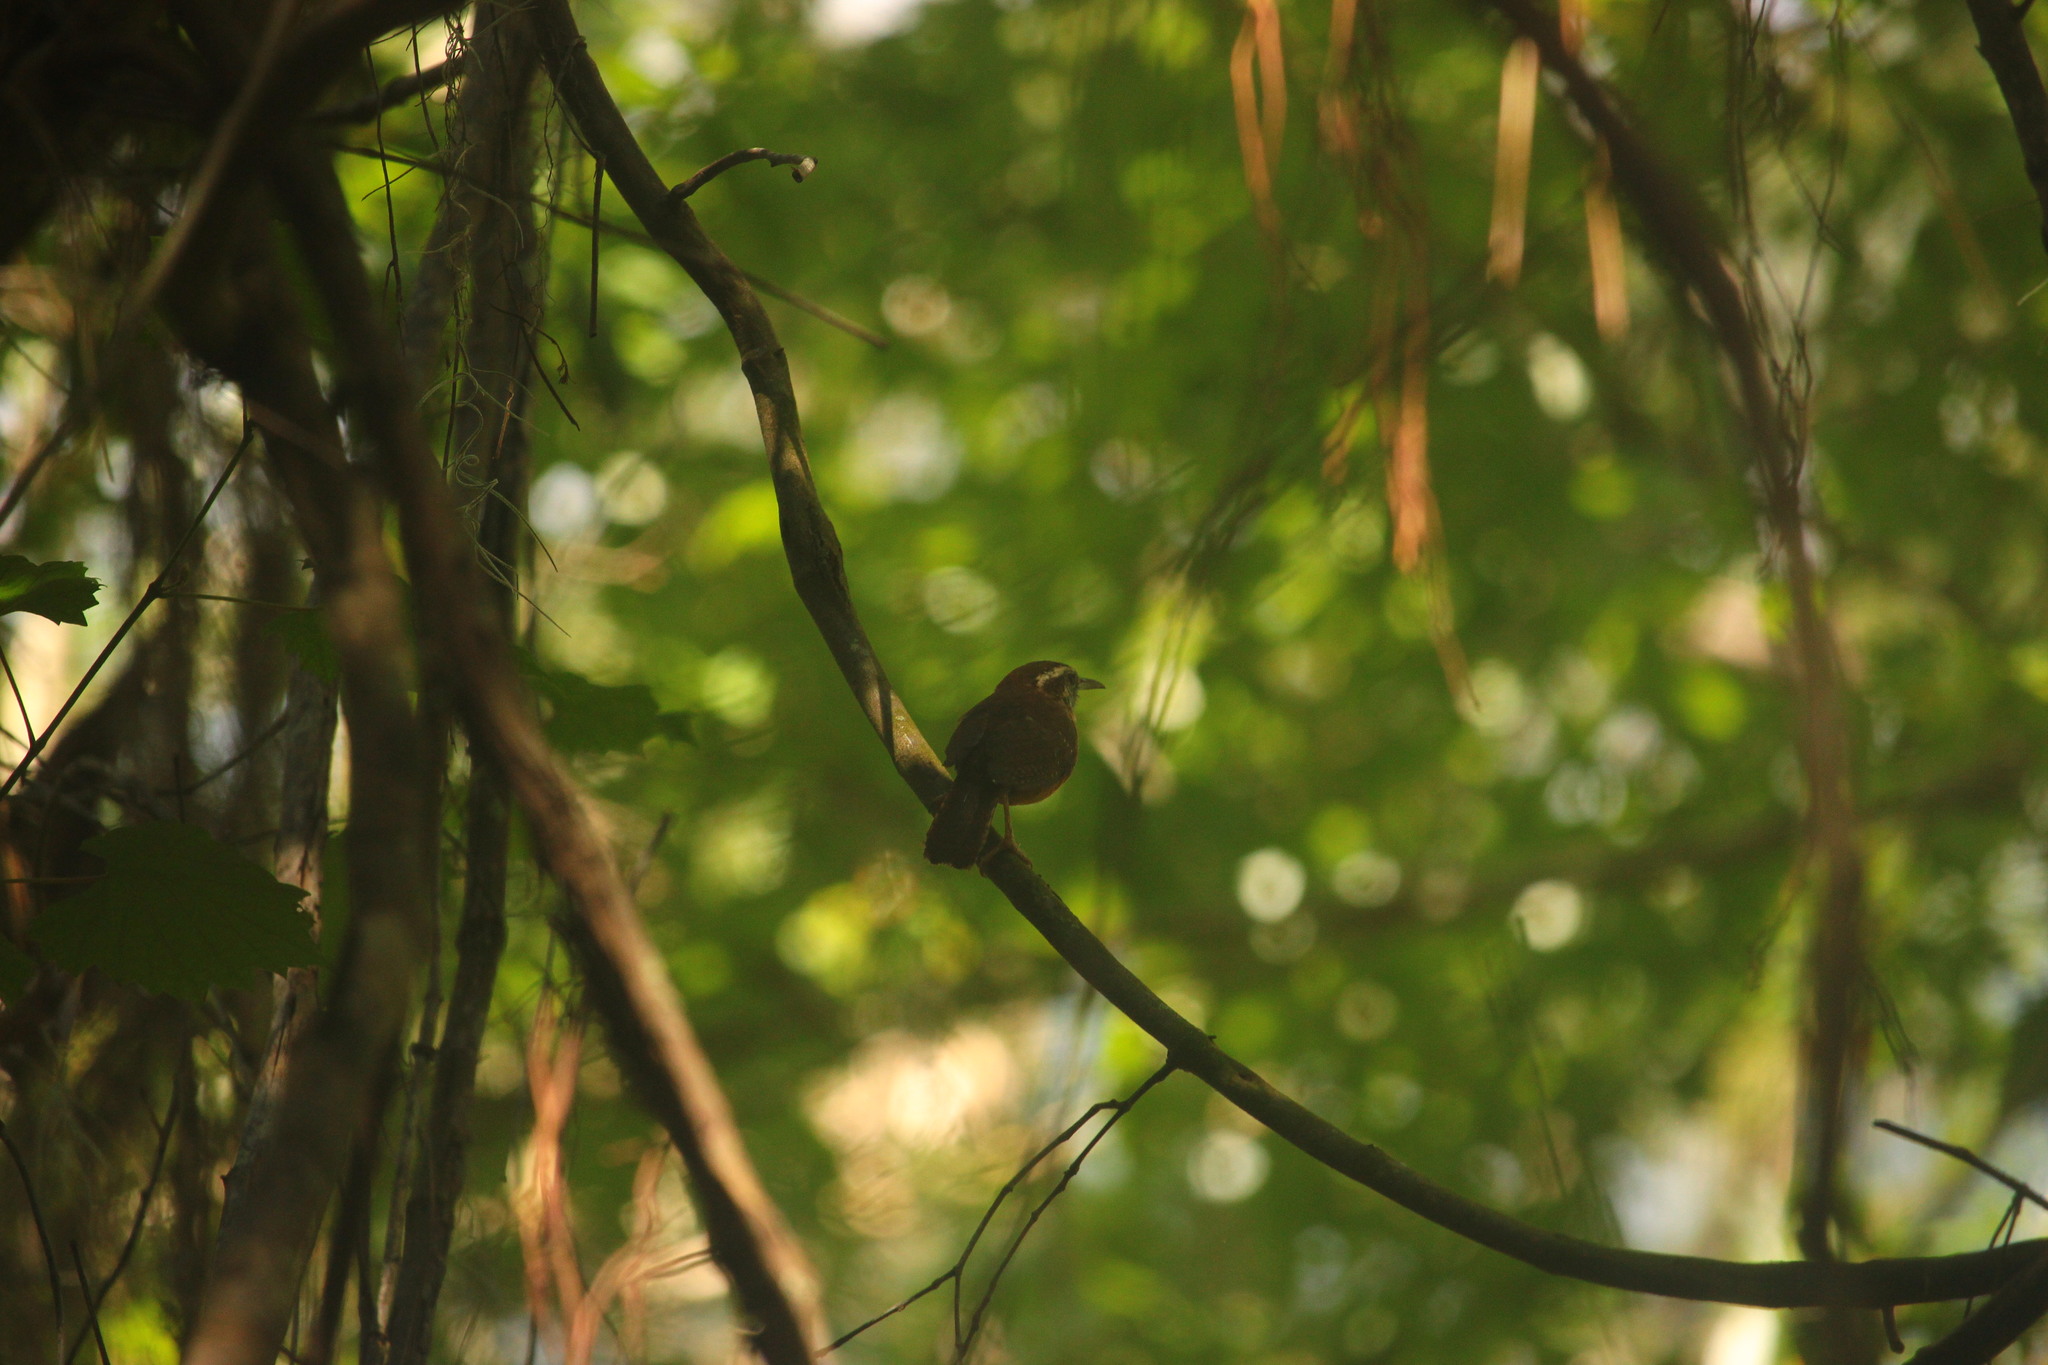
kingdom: Animalia
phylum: Chordata
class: Aves
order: Passeriformes
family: Troglodytidae
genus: Thryothorus
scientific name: Thryothorus ludovicianus
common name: Carolina wren
